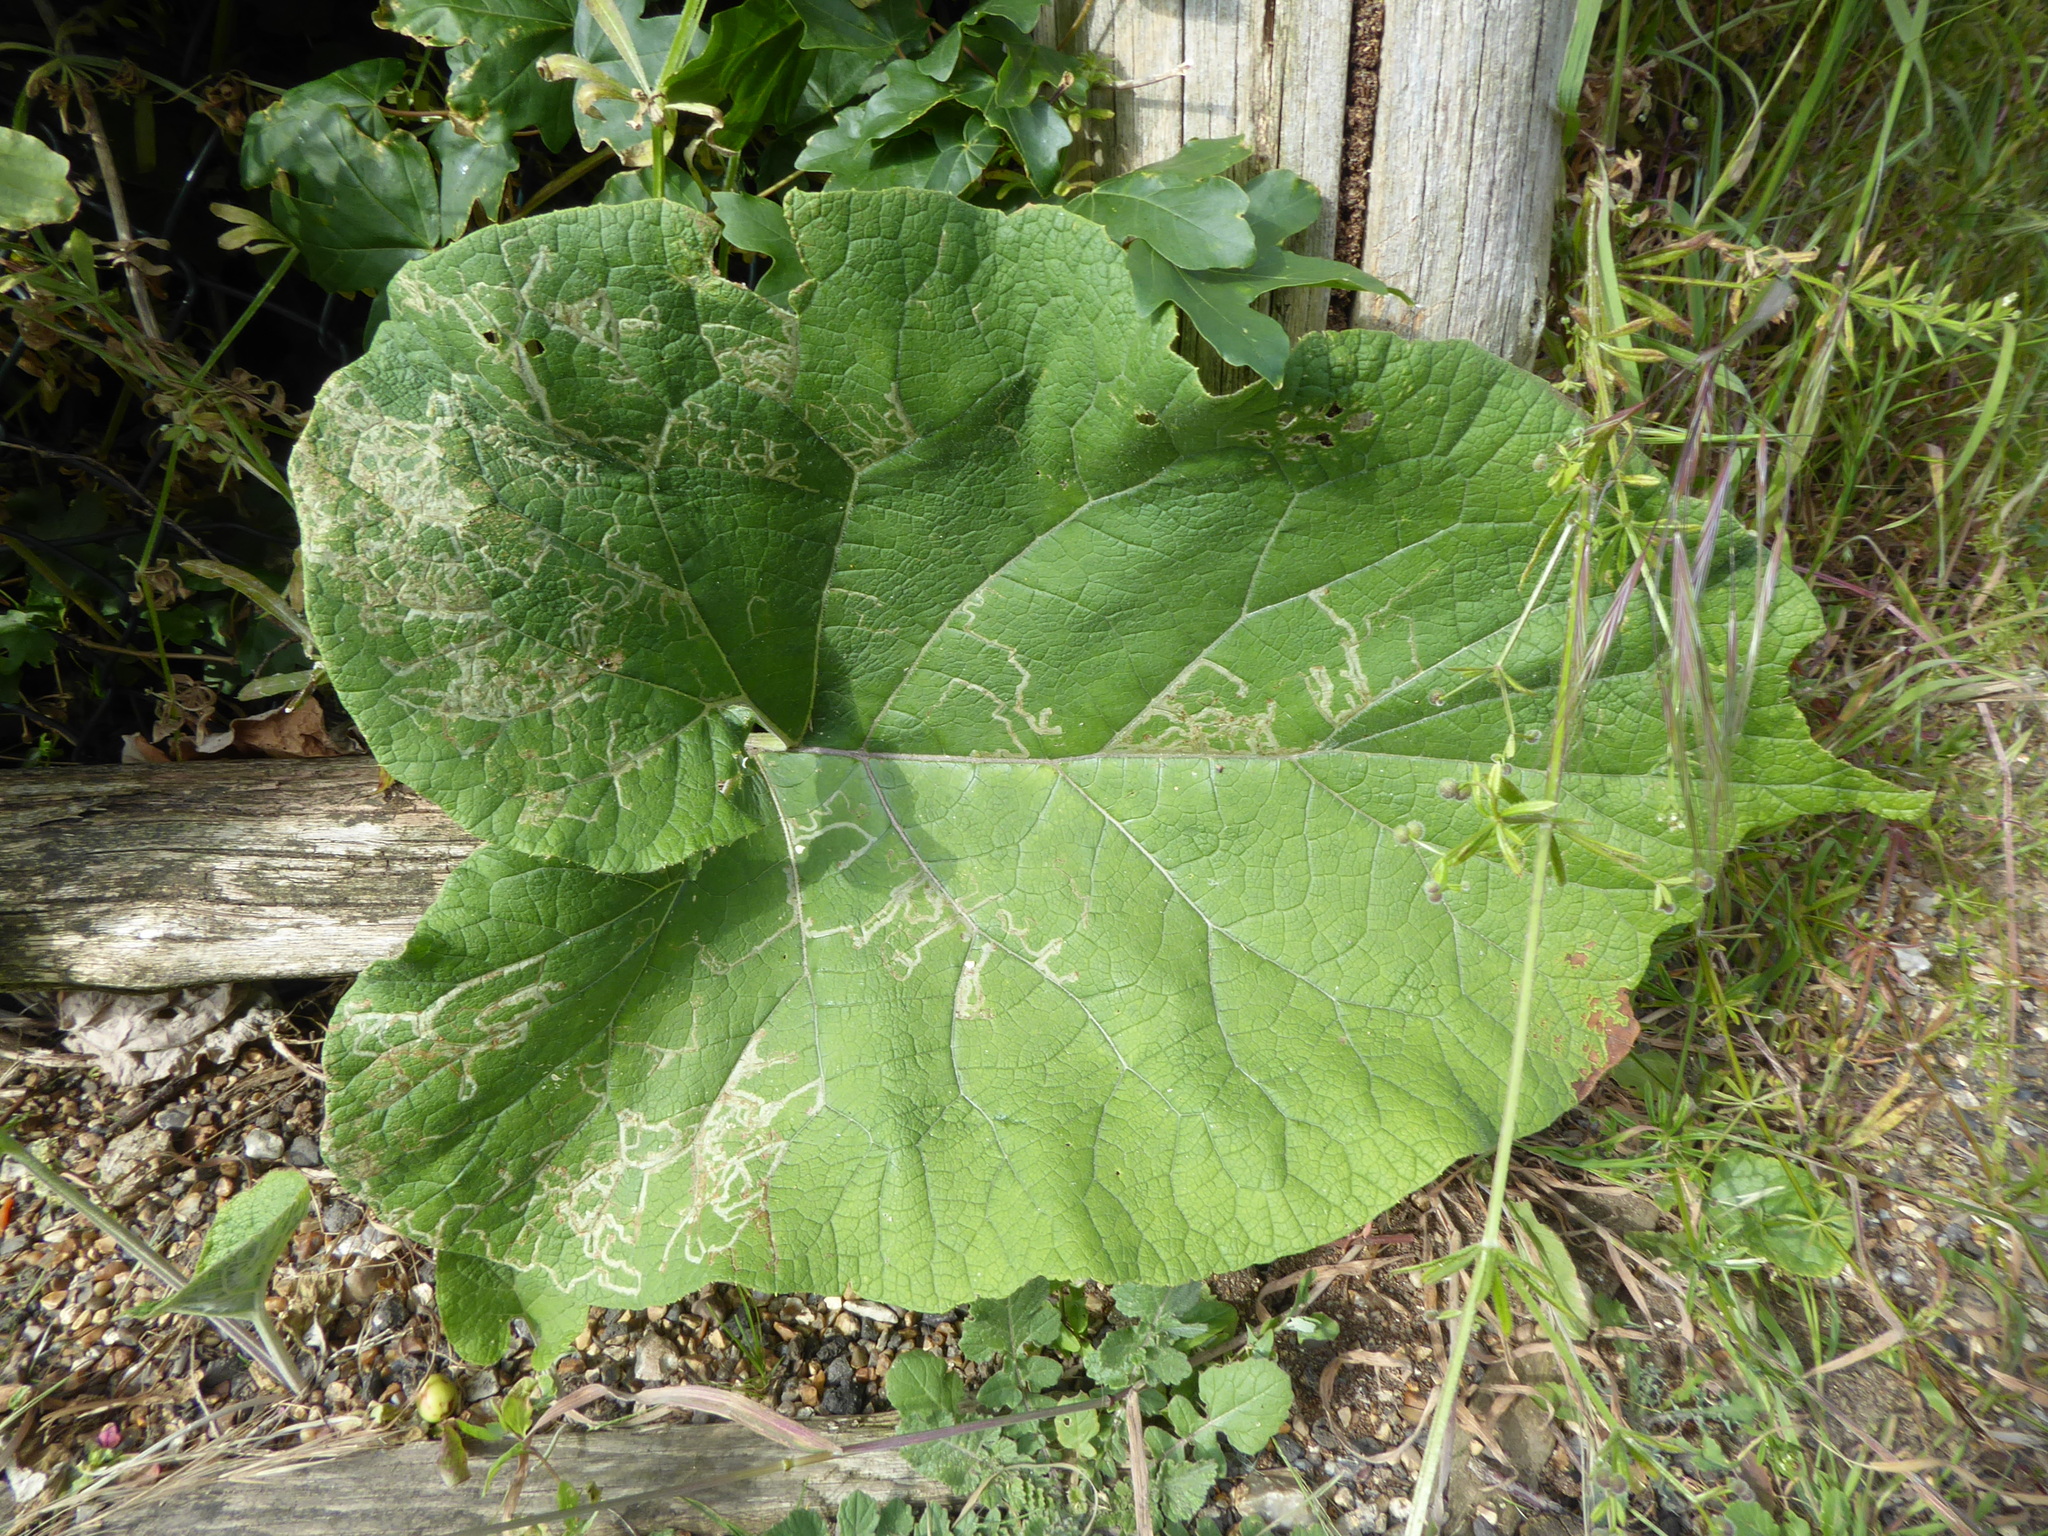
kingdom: Animalia
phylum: Arthropoda
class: Insecta
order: Diptera
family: Agromyzidae
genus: Phytomyza
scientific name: Phytomyza lappae
